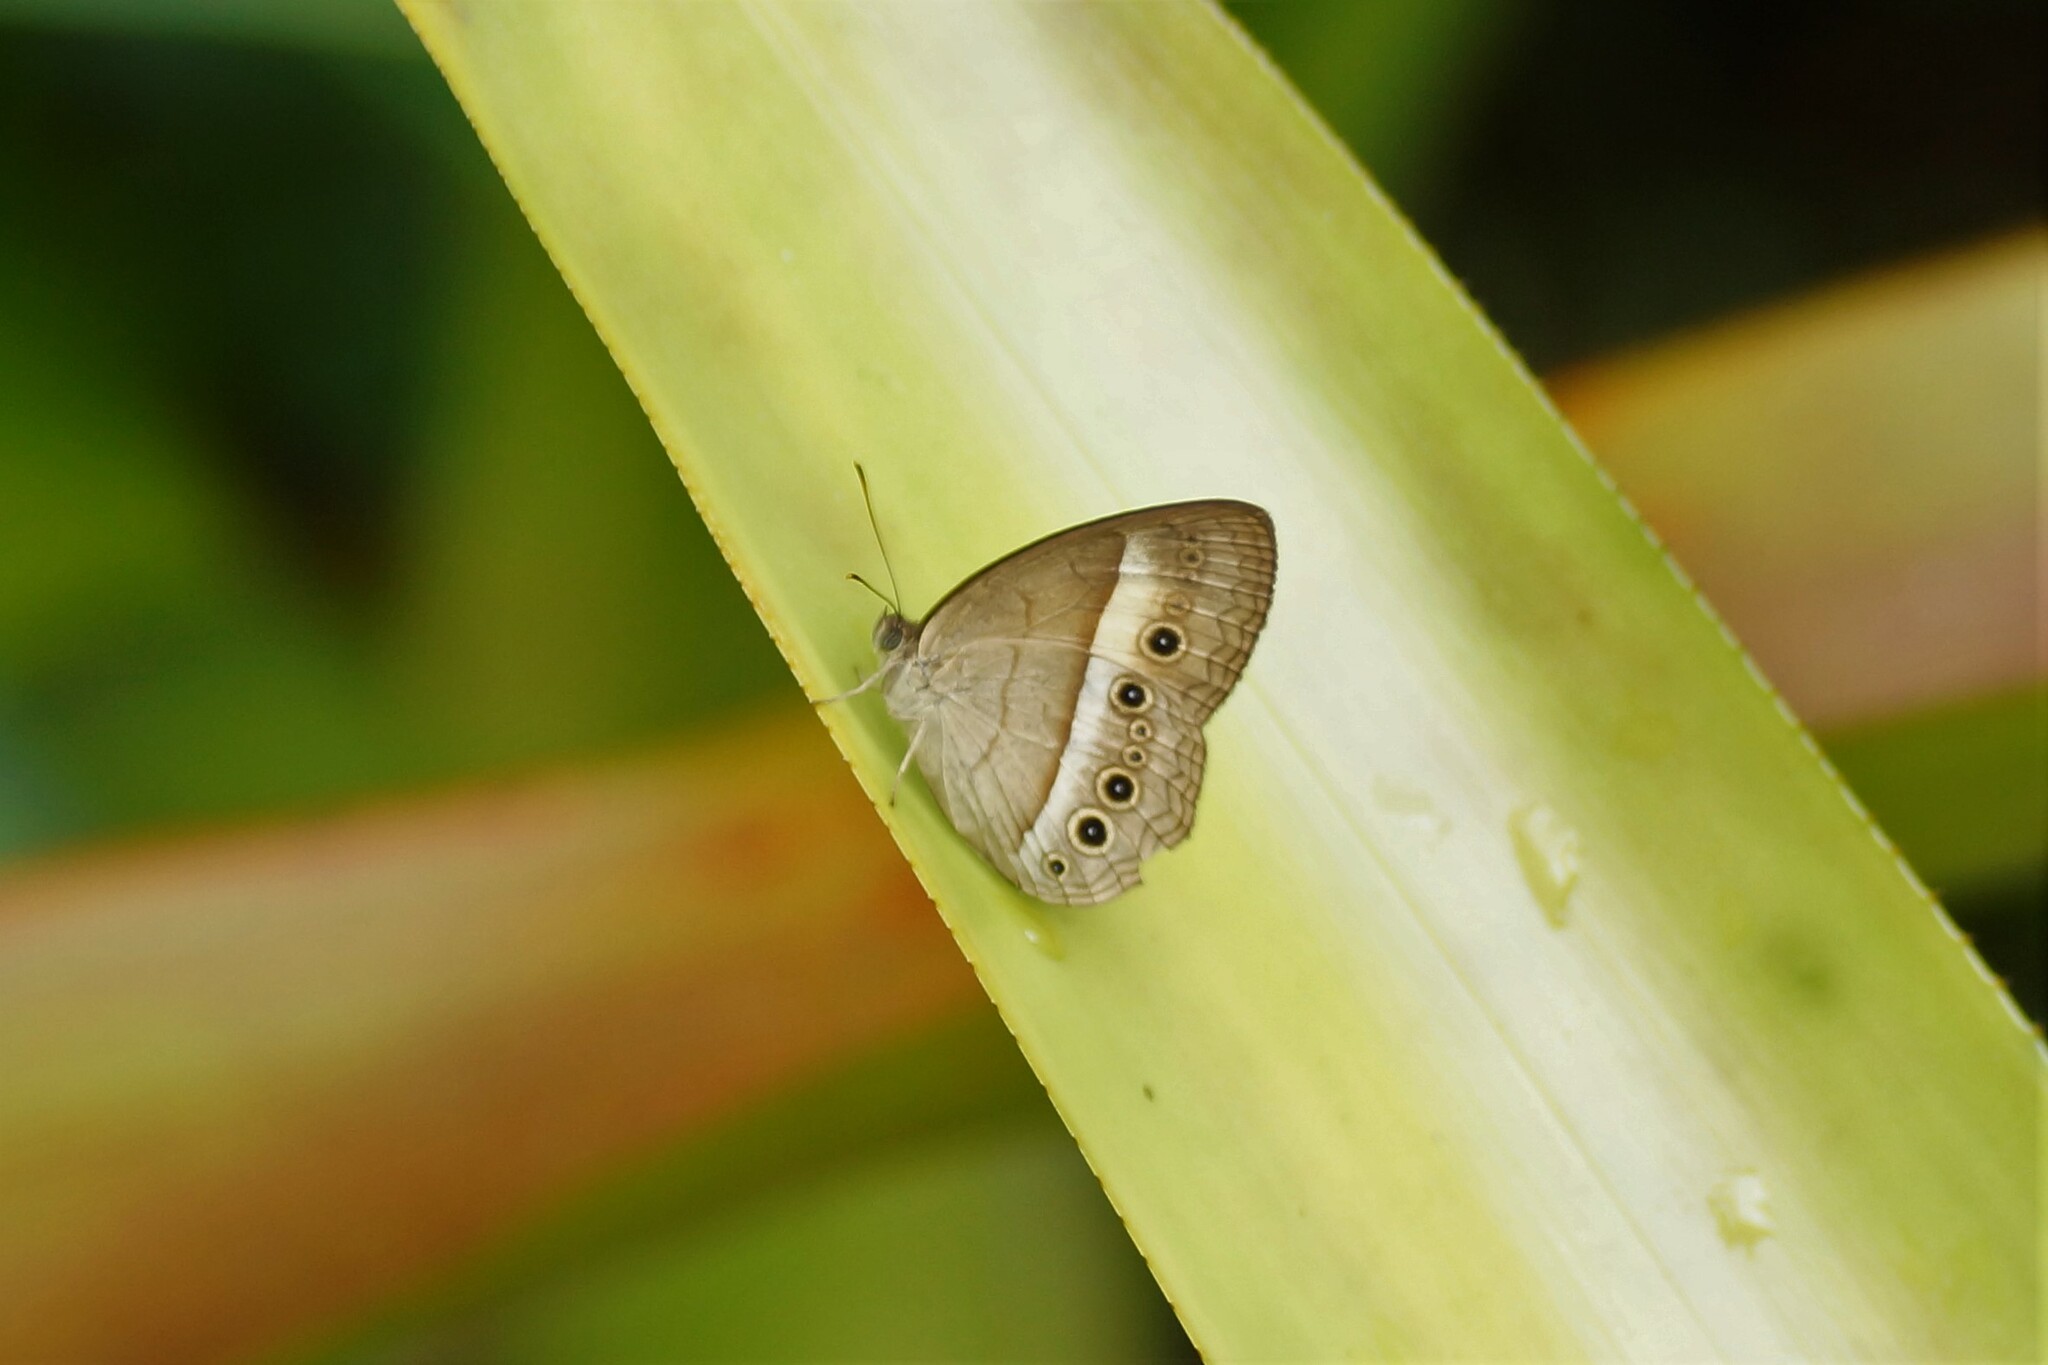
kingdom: Animalia
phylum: Arthropoda
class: Insecta
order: Lepidoptera
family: Nymphalidae
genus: Mycalesis
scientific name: Mycalesis terminus
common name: Orange bushbrown
